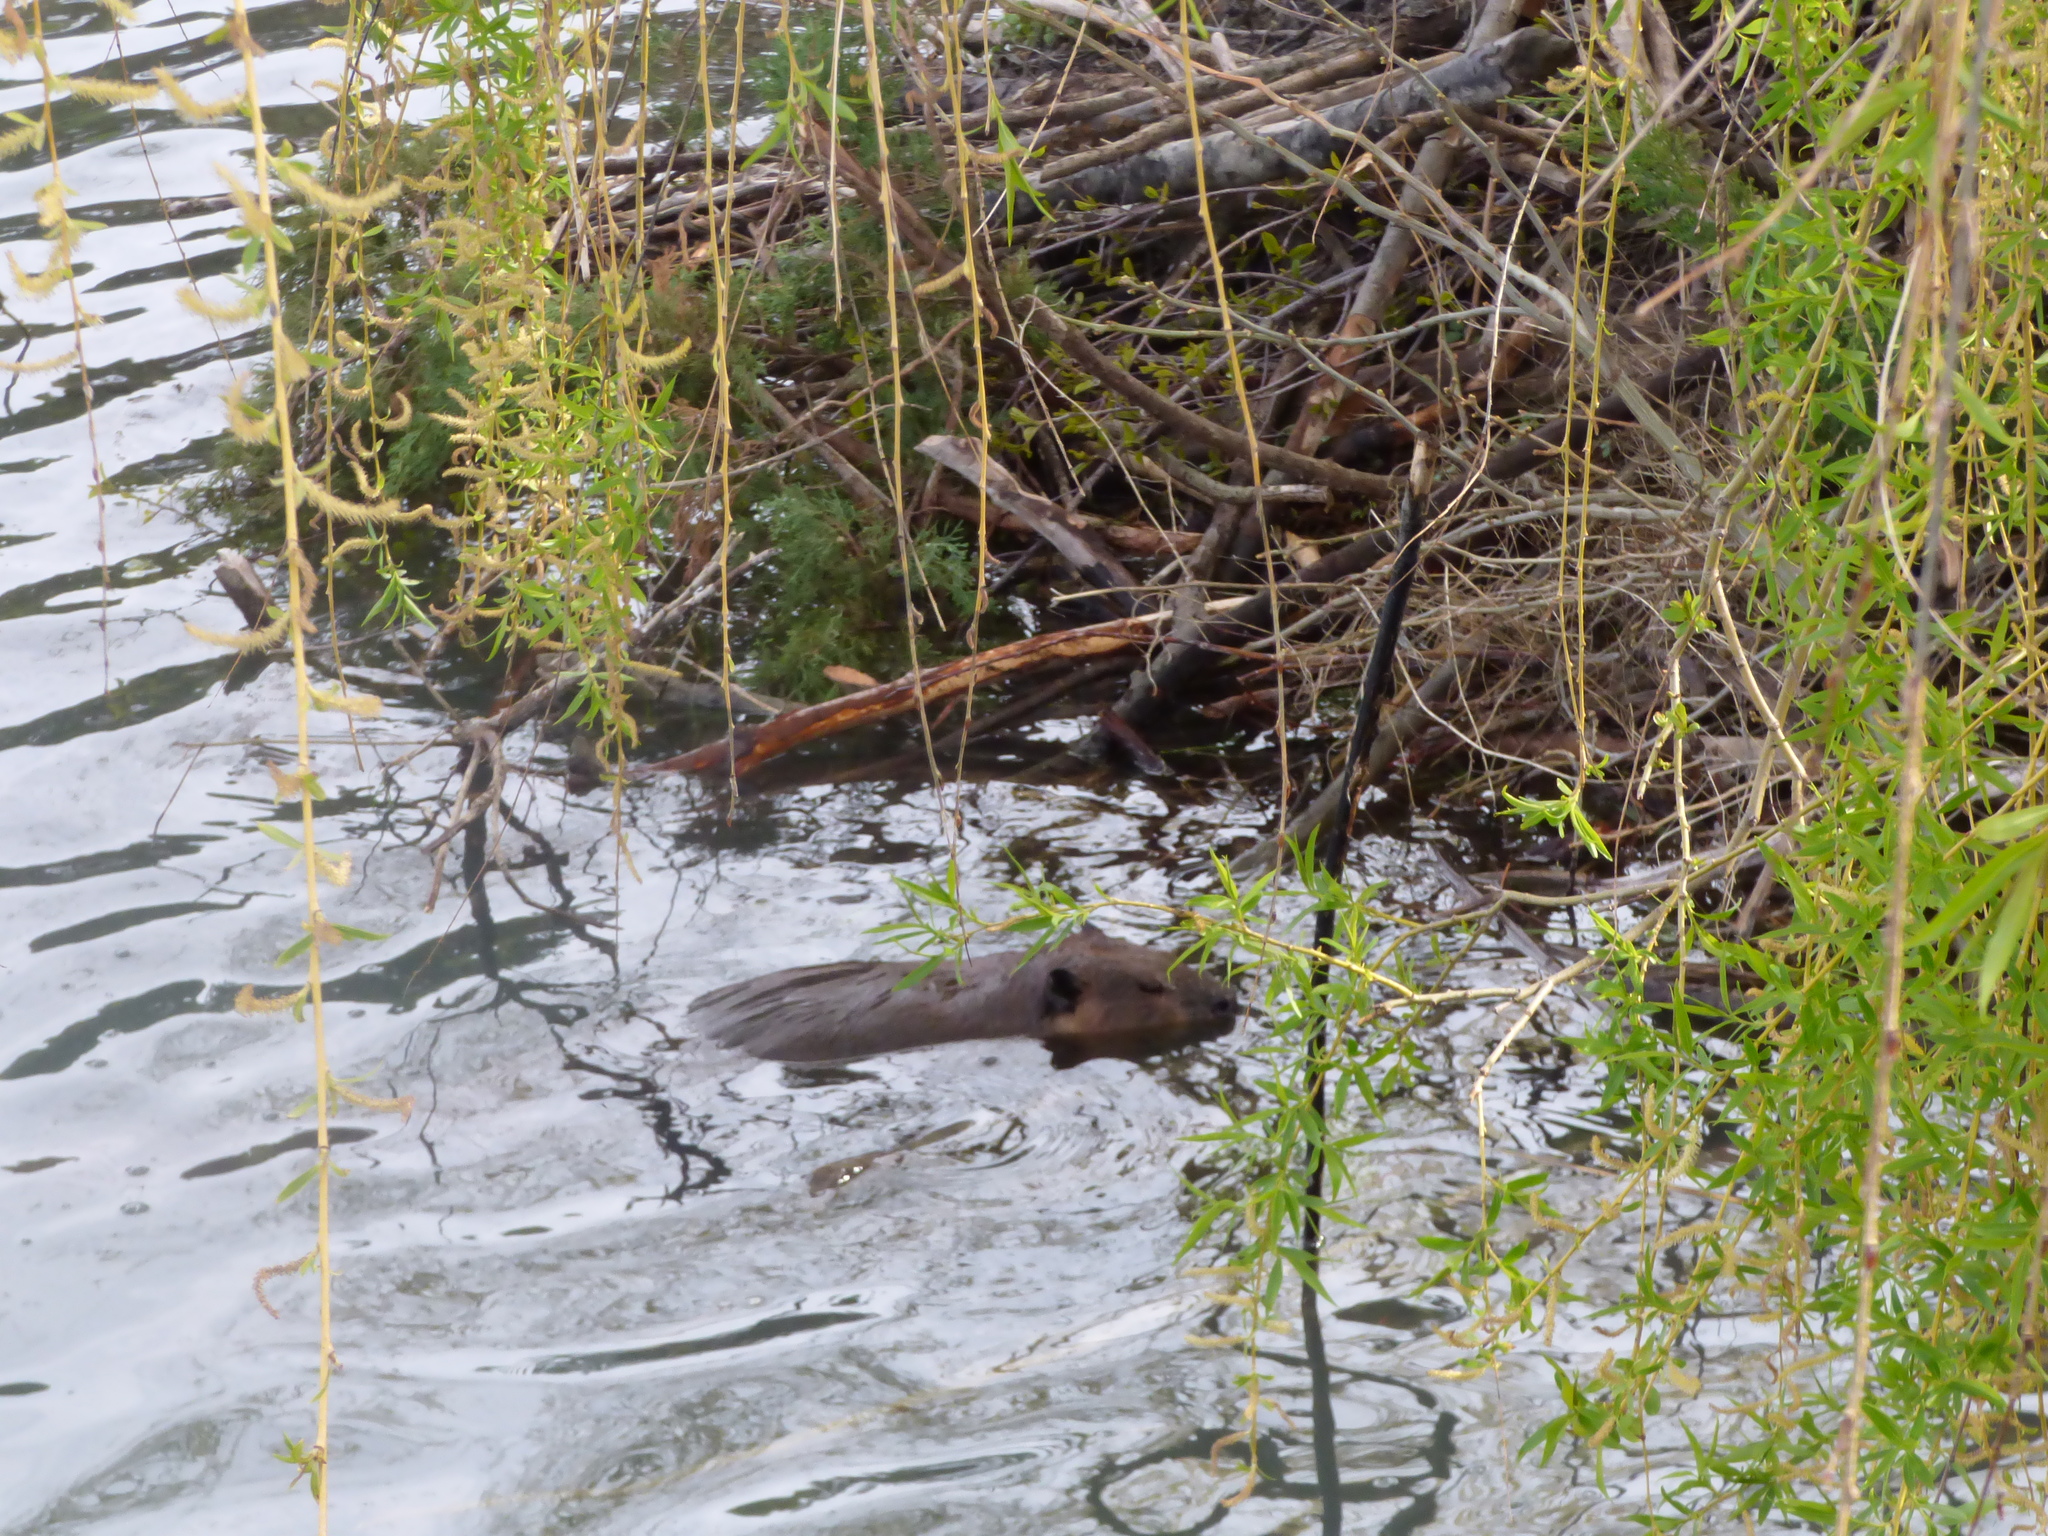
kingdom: Animalia
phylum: Chordata
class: Mammalia
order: Rodentia
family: Castoridae
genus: Castor
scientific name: Castor canadensis
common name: American beaver
